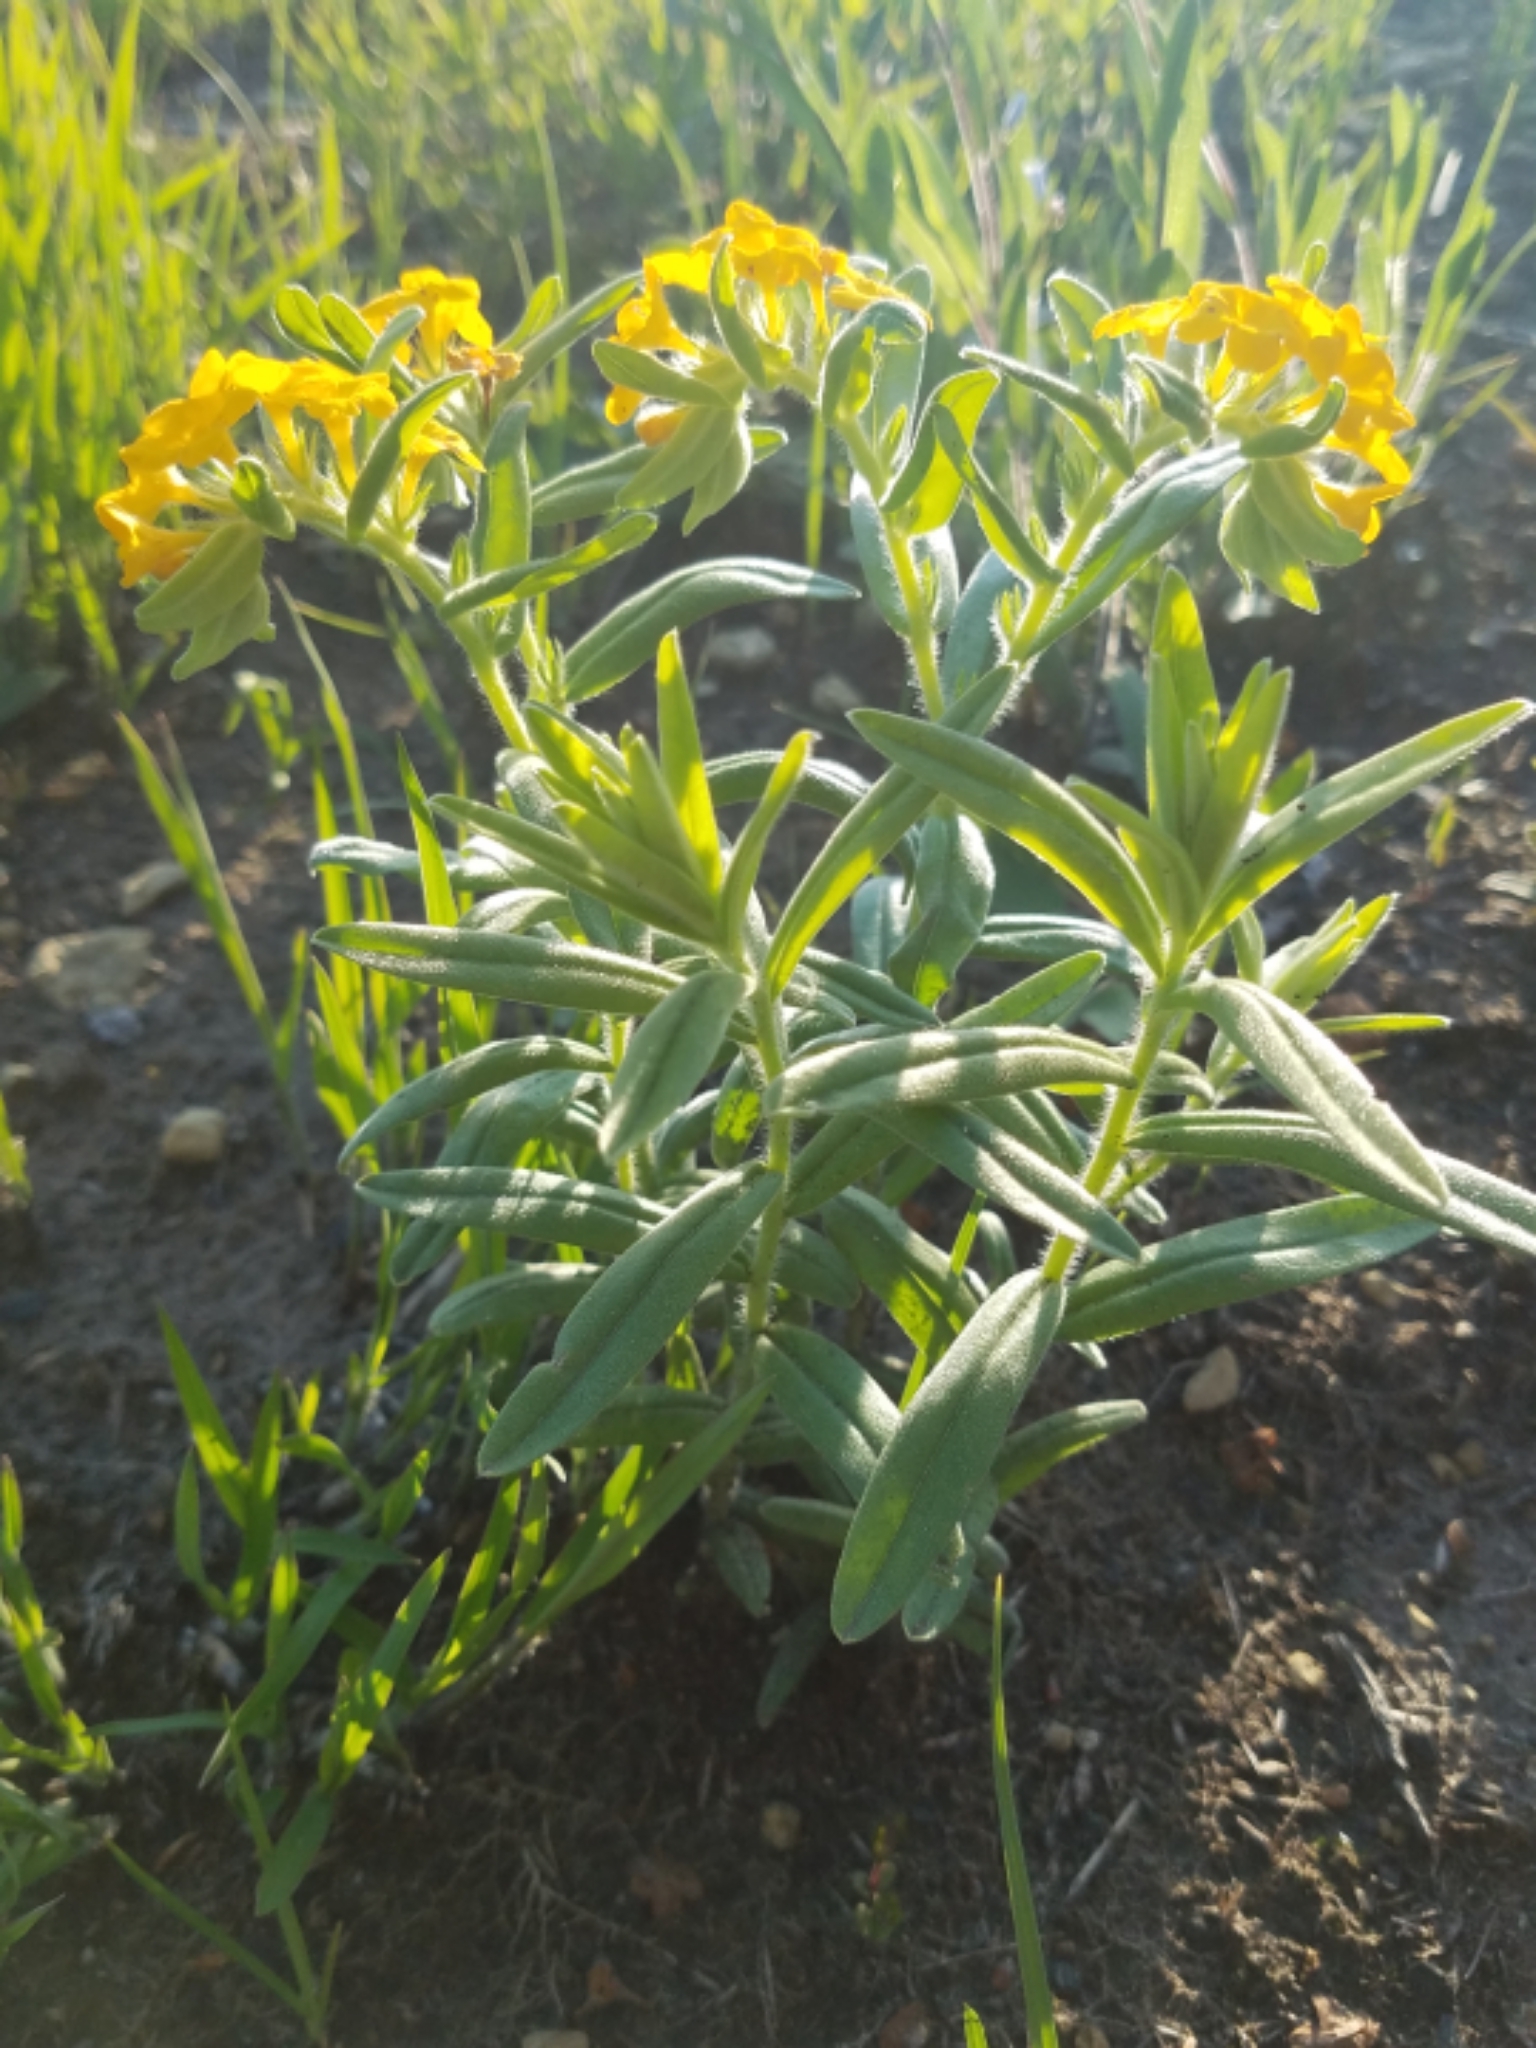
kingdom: Plantae
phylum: Tracheophyta
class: Magnoliopsida
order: Boraginales
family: Boraginaceae
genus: Lithospermum
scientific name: Lithospermum canescens
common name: Hoary puccoon
